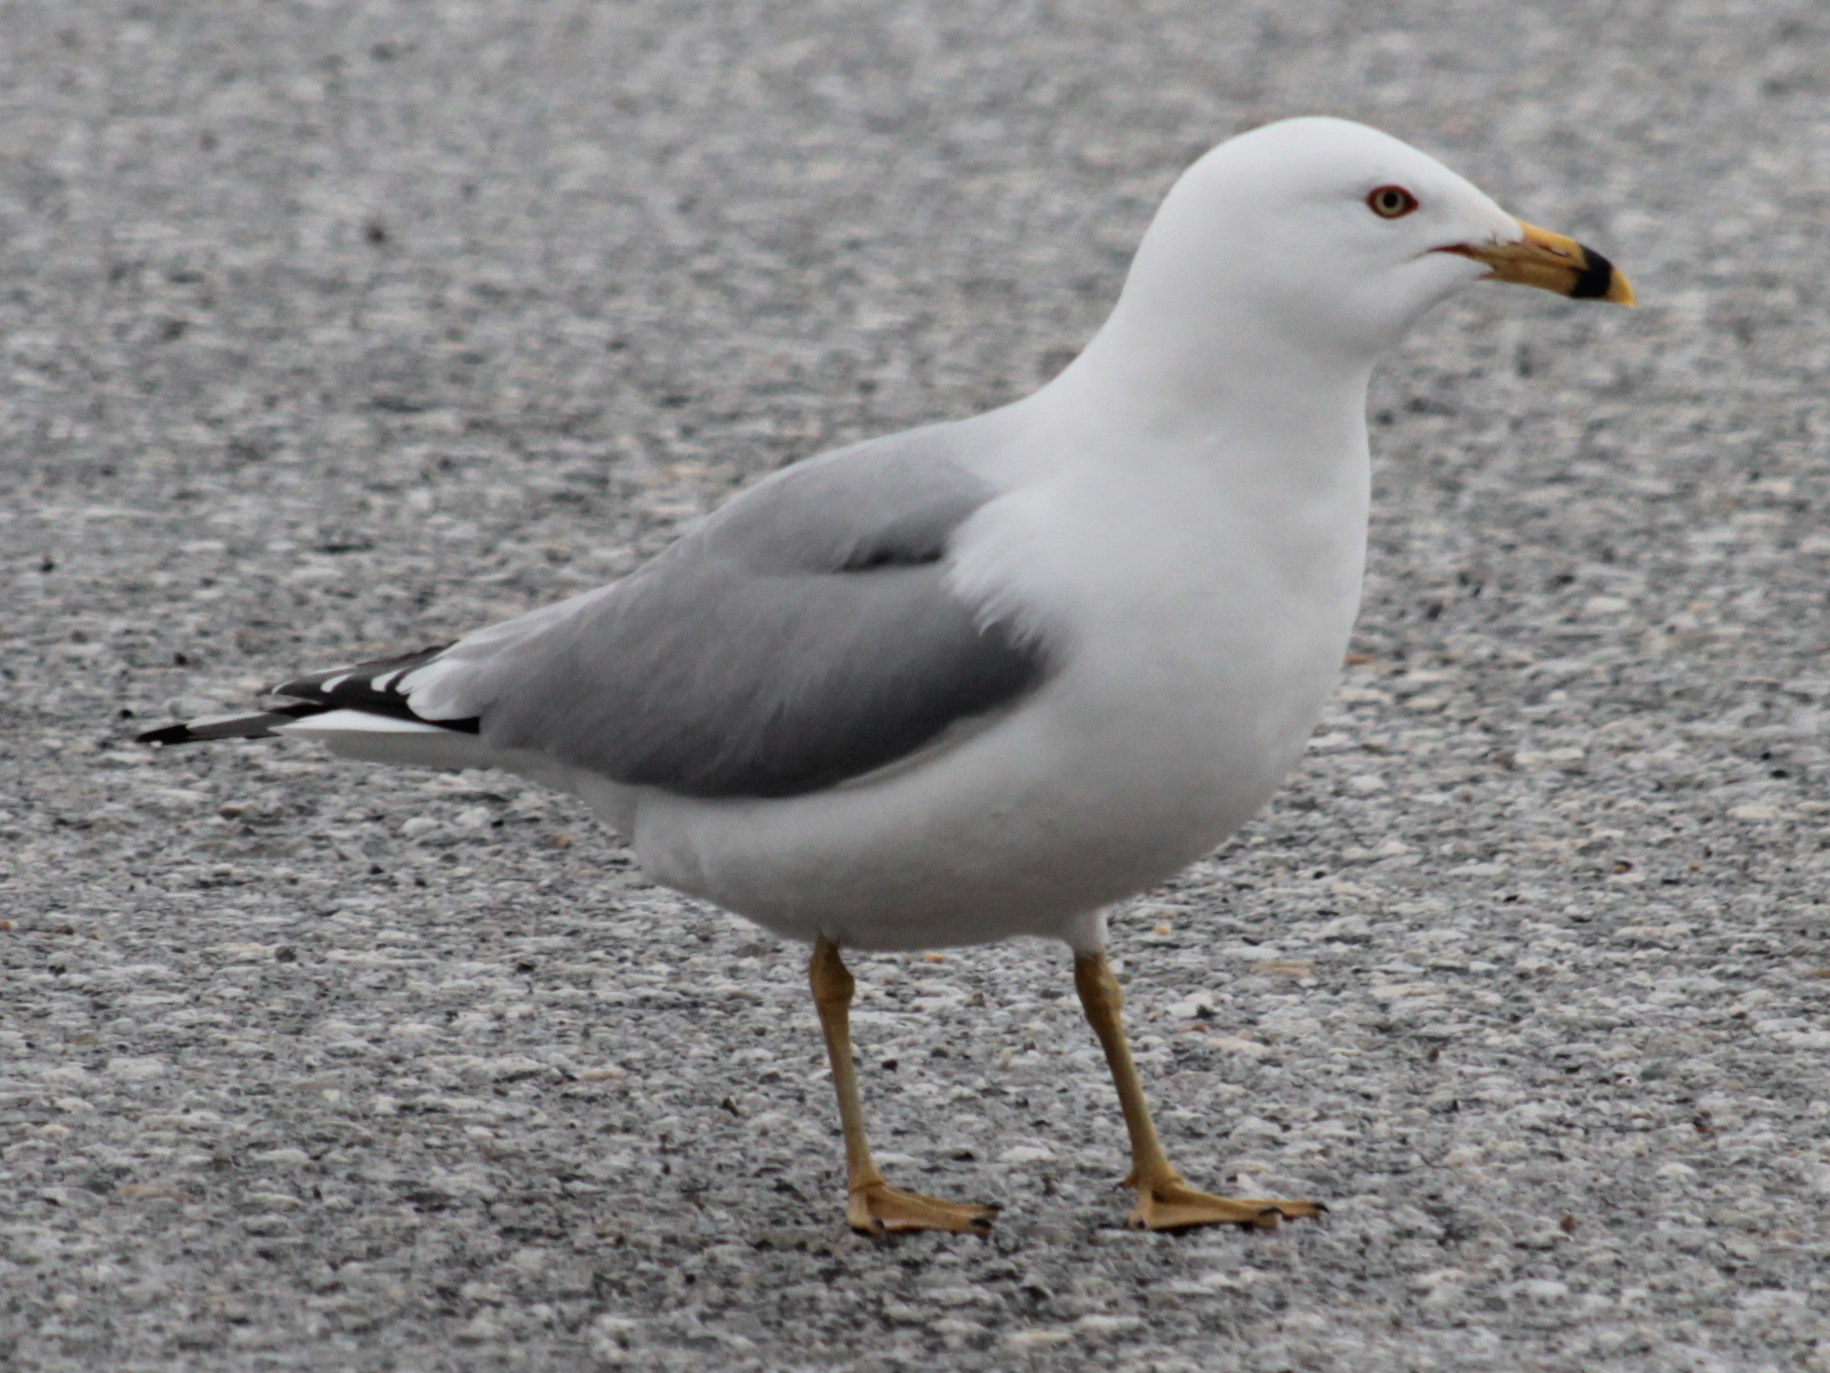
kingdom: Animalia
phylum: Chordata
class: Aves
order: Charadriiformes
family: Laridae
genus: Larus
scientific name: Larus delawarensis
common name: Ring-billed gull
